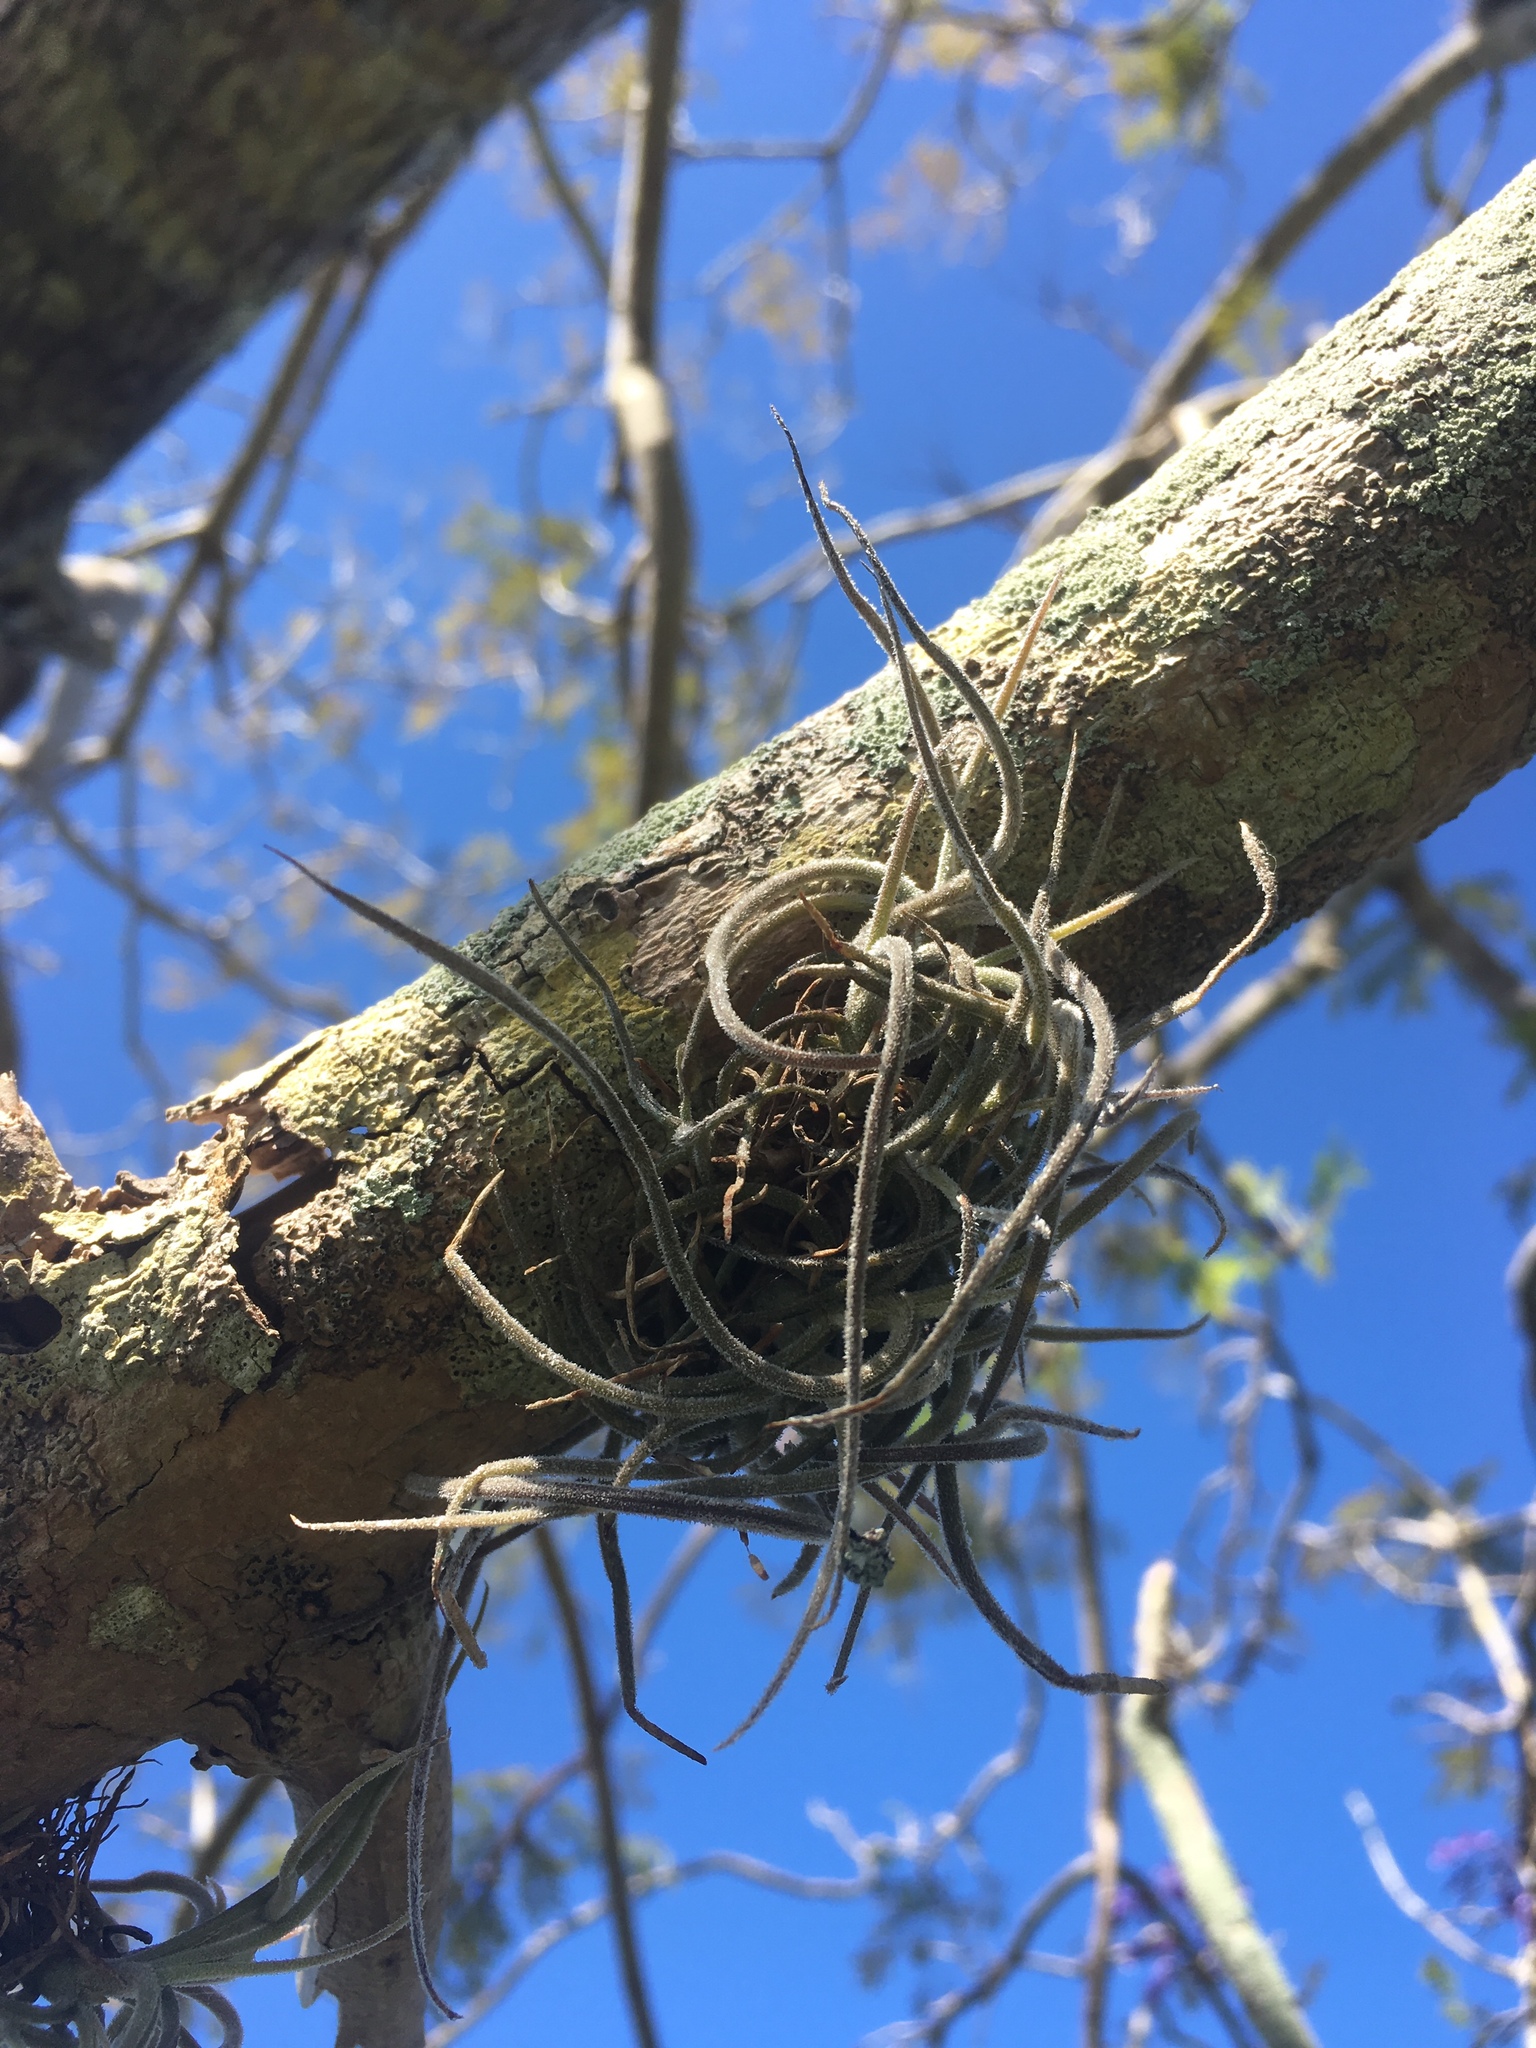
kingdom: Plantae
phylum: Tracheophyta
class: Liliopsida
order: Poales
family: Bromeliaceae
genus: Tillandsia
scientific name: Tillandsia recurvata
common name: Small ballmoss
